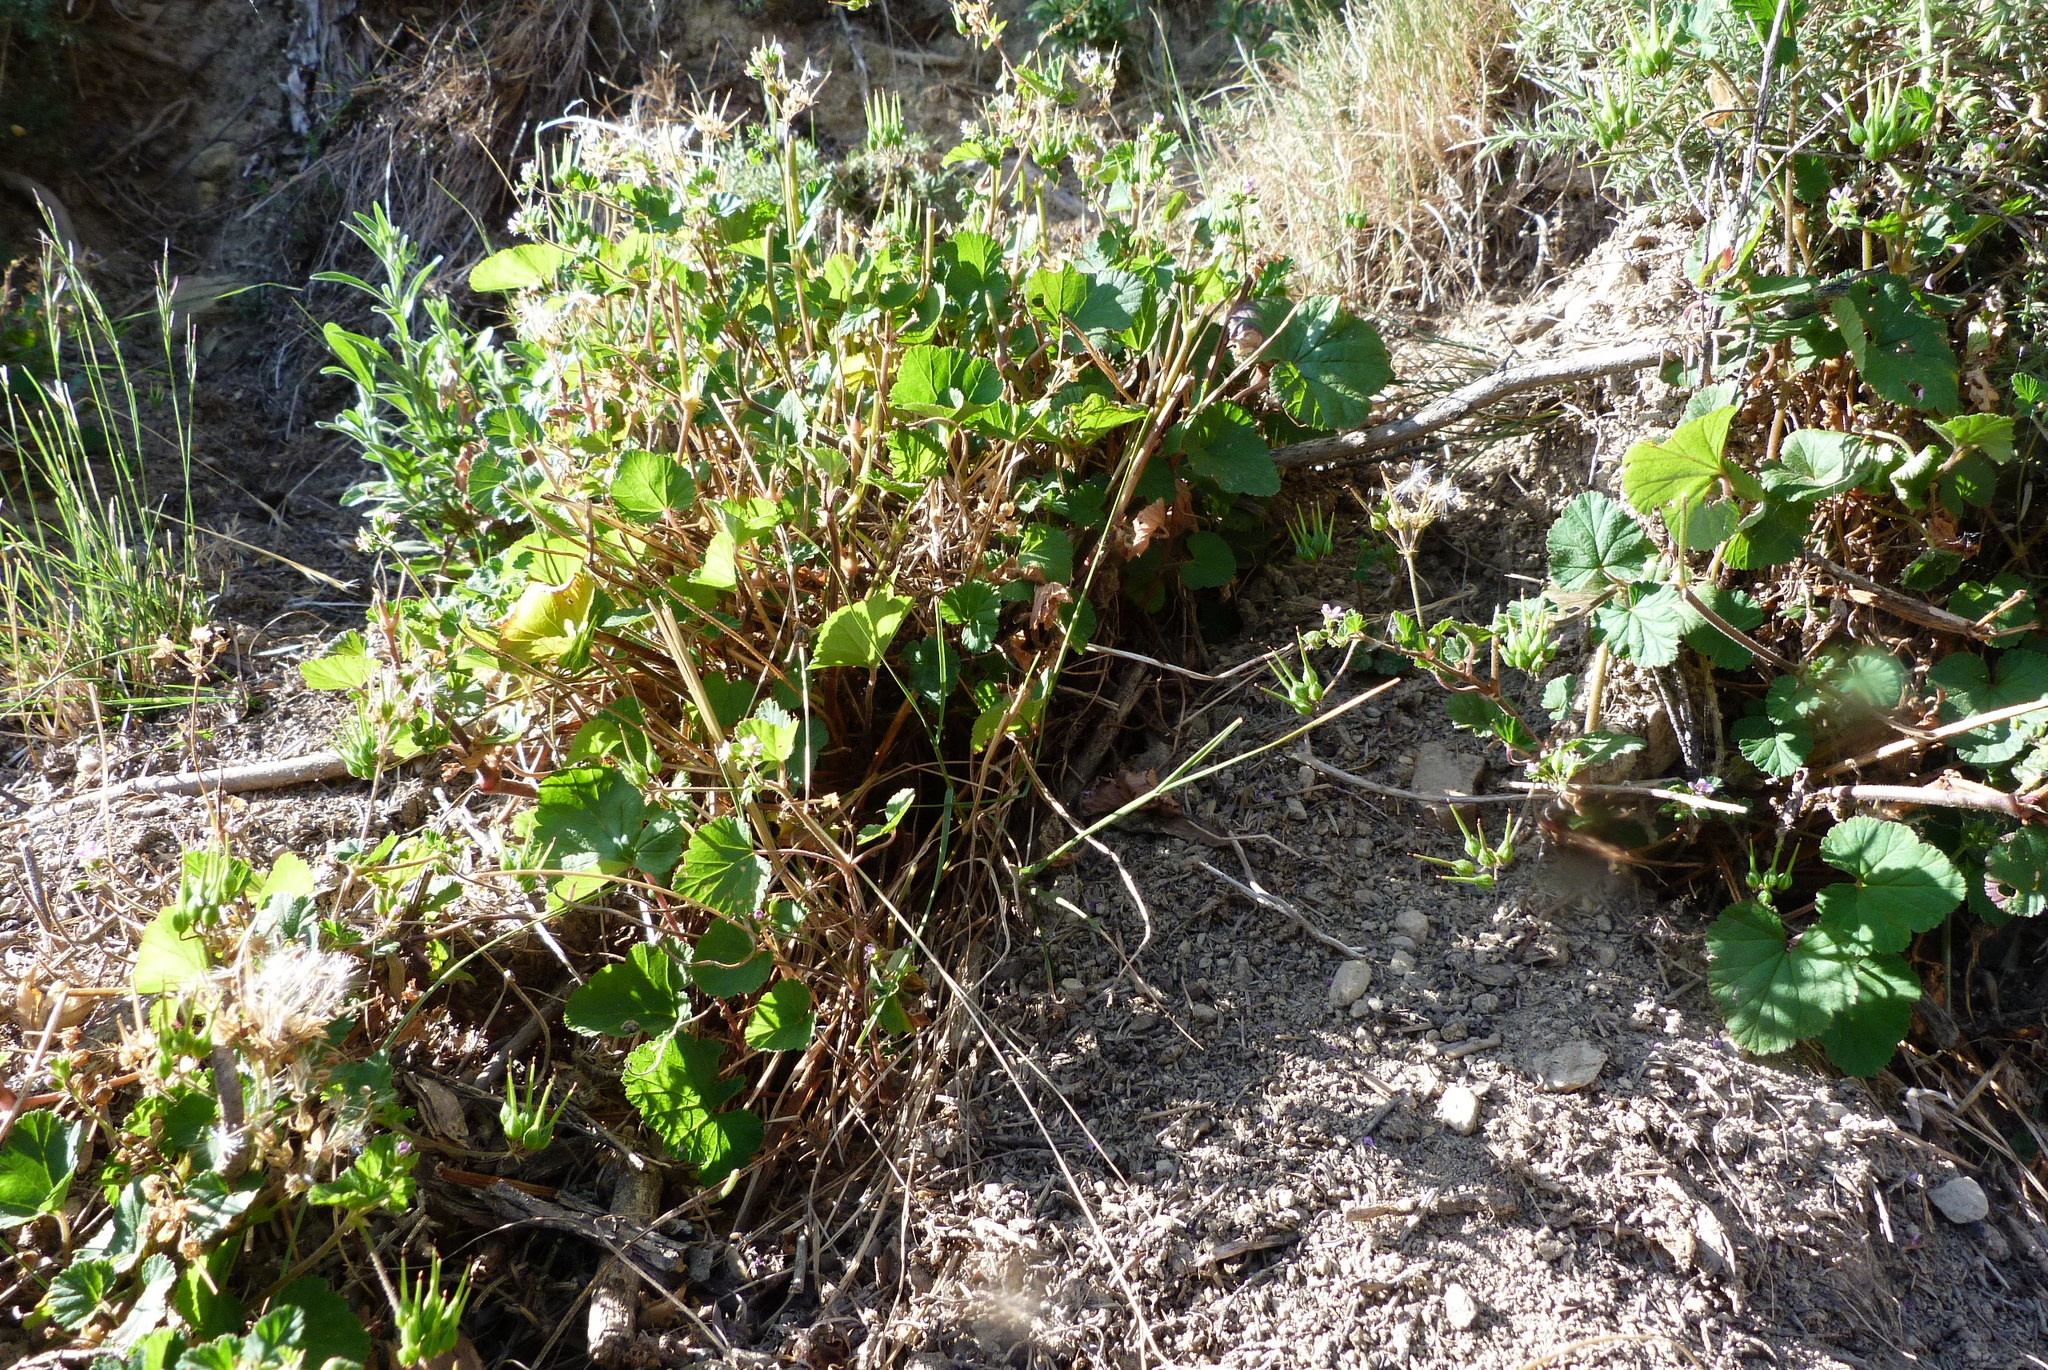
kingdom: Plantae
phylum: Tracheophyta
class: Magnoliopsida
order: Geraniales
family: Geraniaceae
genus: Pelargonium
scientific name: Pelargonium inodorum
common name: Kopata geranium
